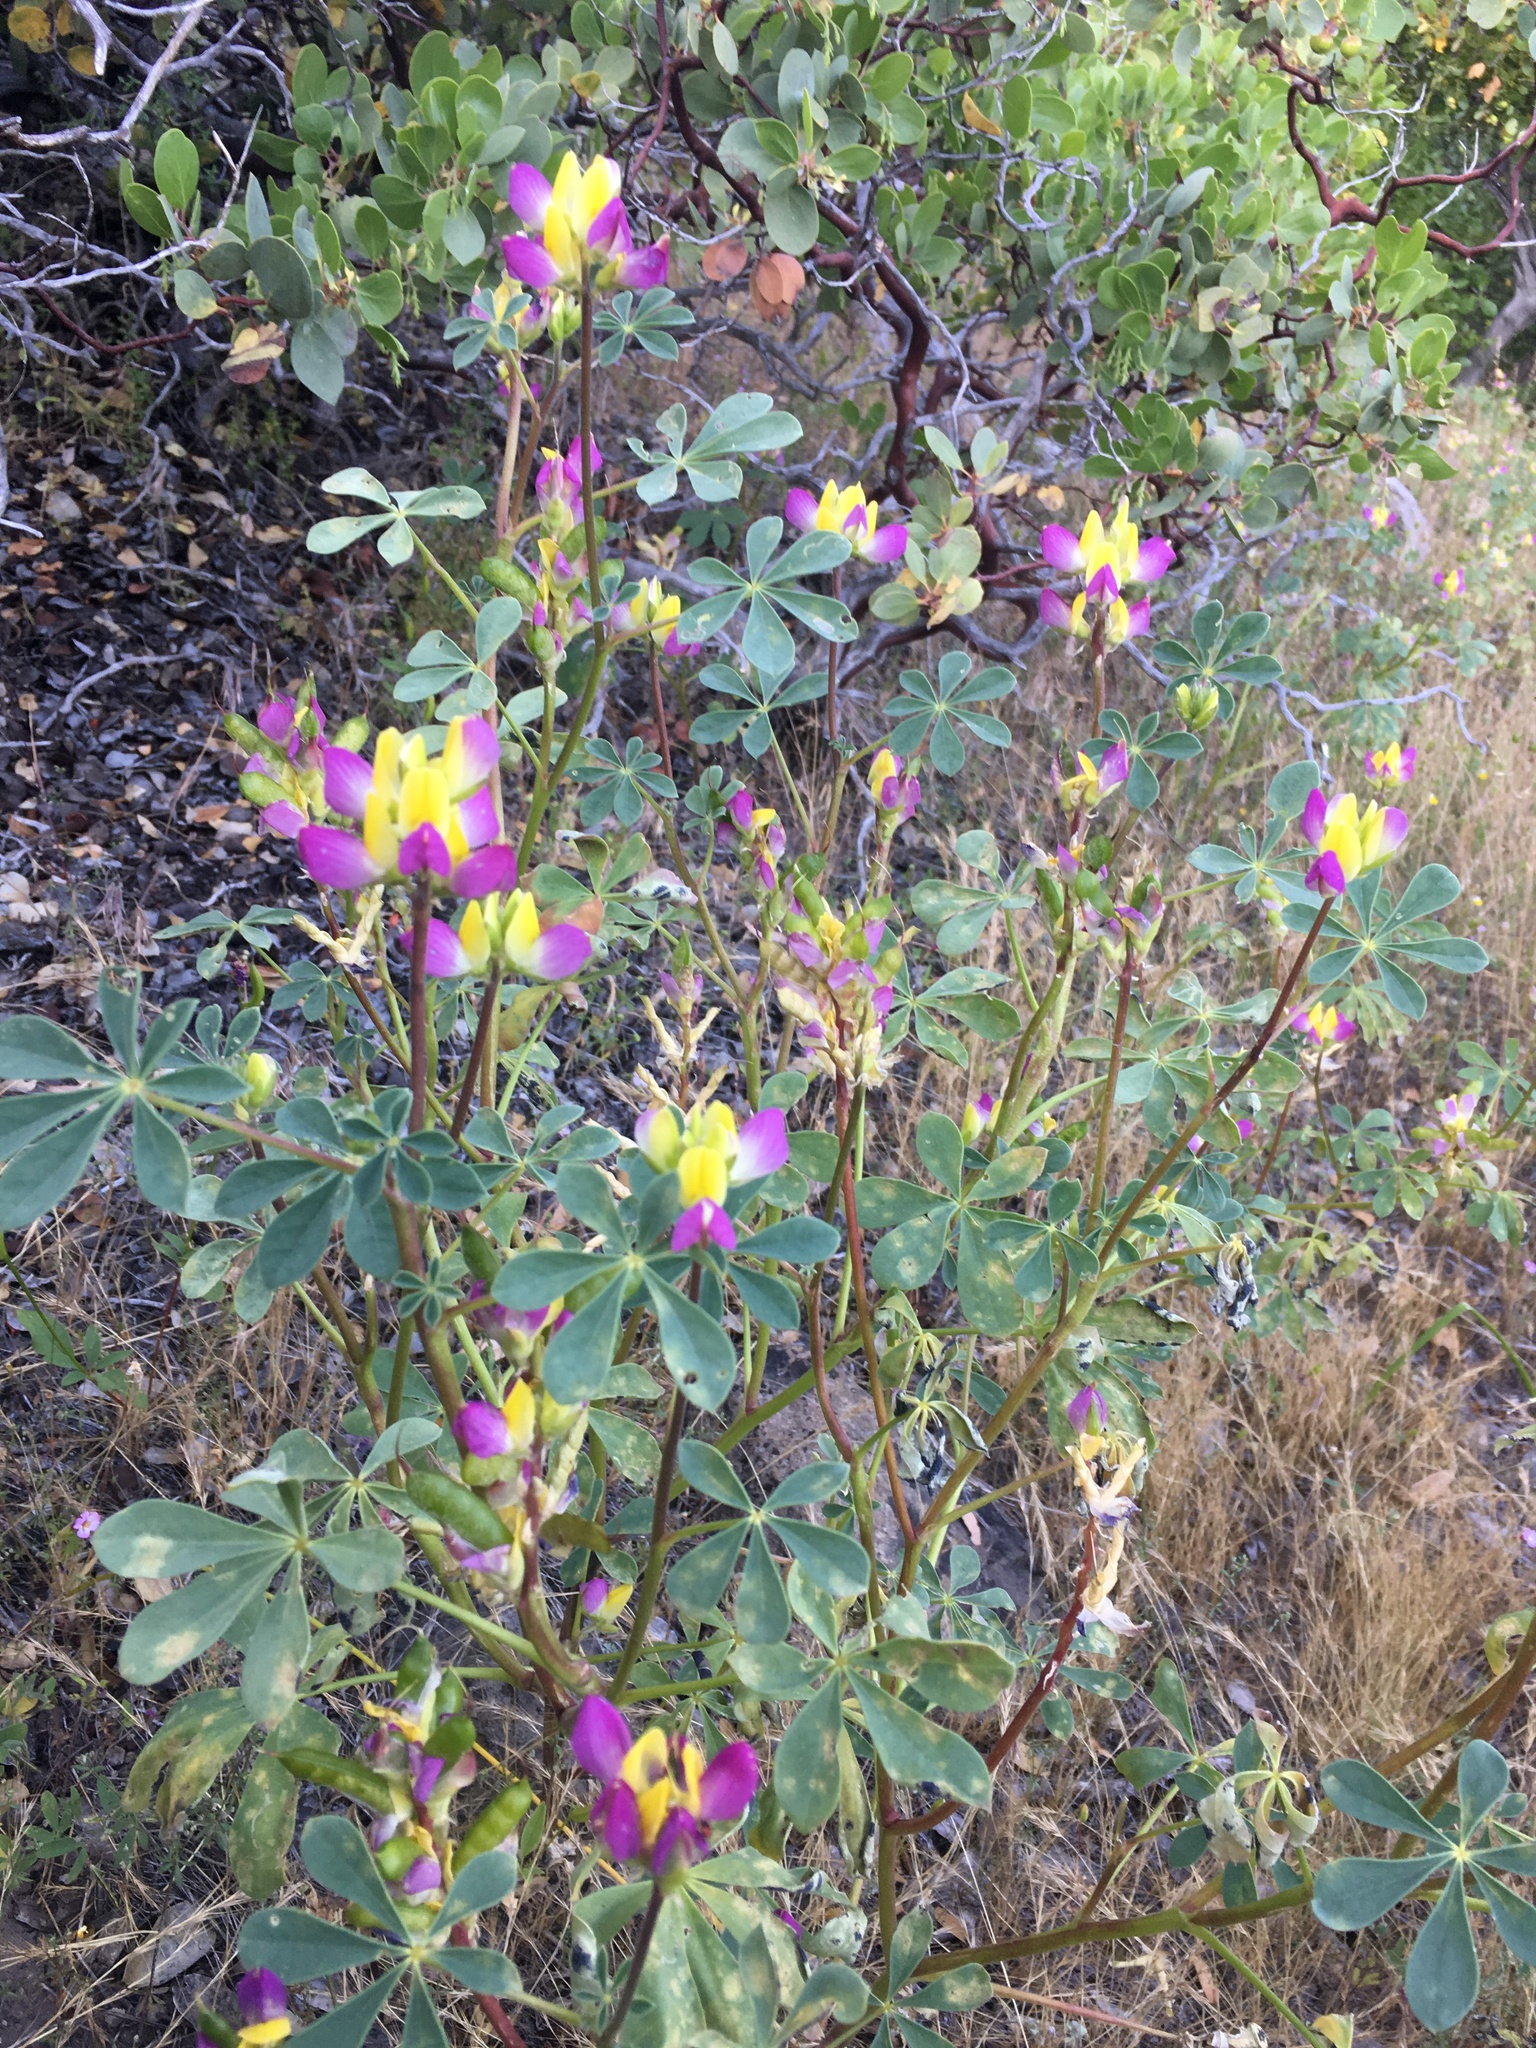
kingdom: Plantae
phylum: Tracheophyta
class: Magnoliopsida
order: Fabales
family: Fabaceae
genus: Lupinus
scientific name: Lupinus stiversii
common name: Harlequin lupine
